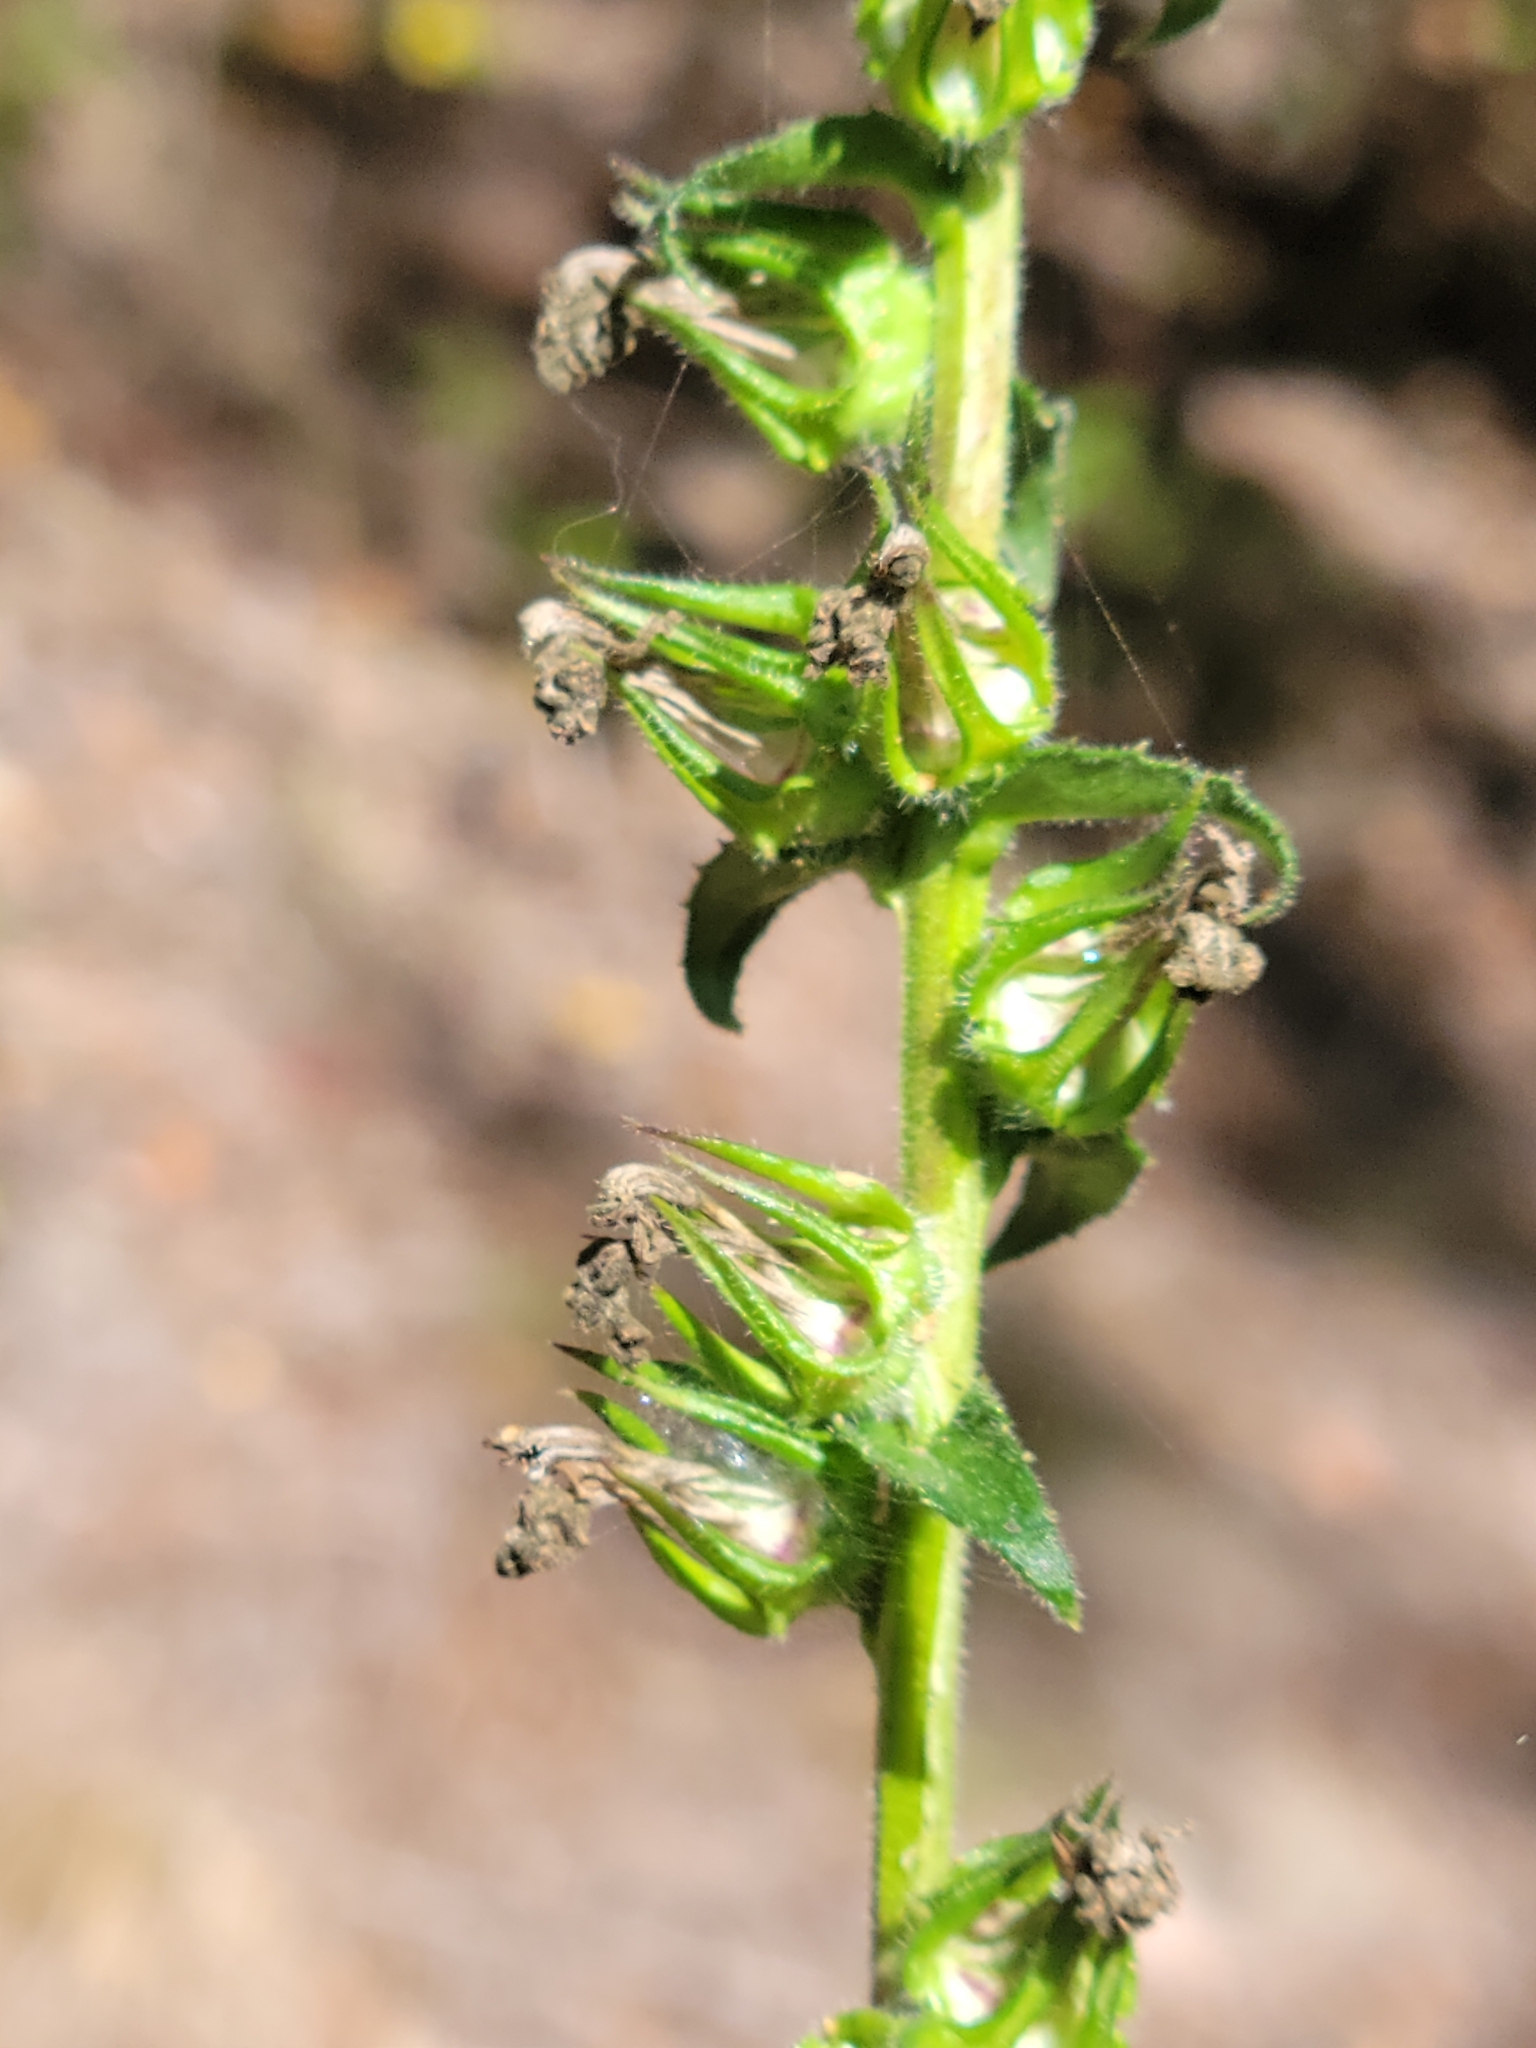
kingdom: Plantae
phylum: Tracheophyta
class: Magnoliopsida
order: Asterales
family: Campanulaceae
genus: Lobelia
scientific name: Lobelia puberula
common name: Purple dewdrop
